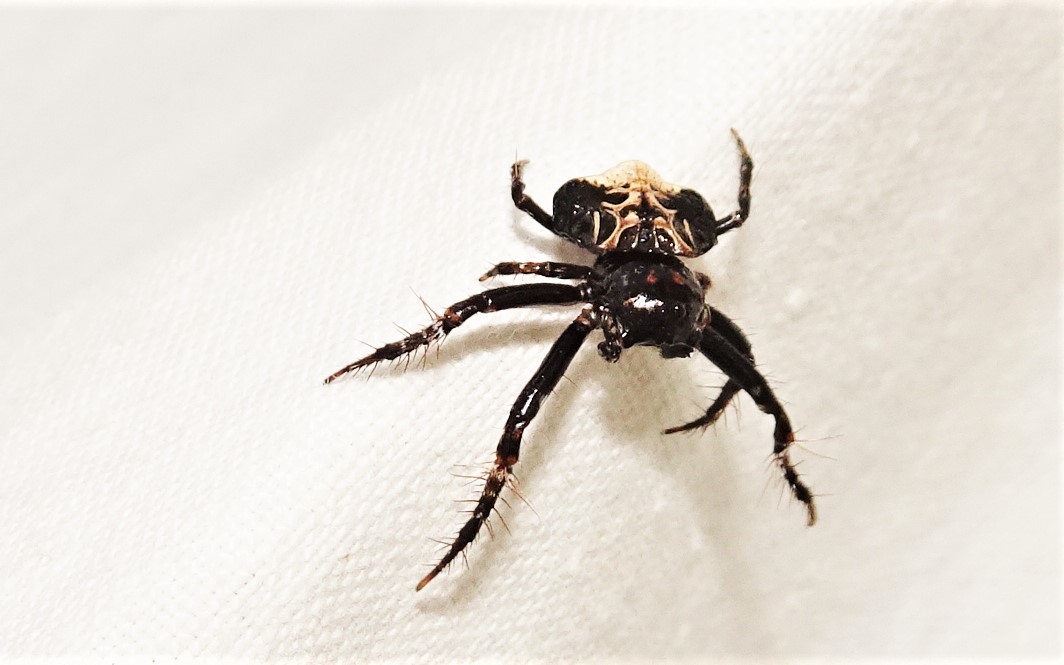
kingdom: Animalia
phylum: Arthropoda
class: Arachnida
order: Araneae
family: Arkyidae
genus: Arkys
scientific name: Arkys curtulus
